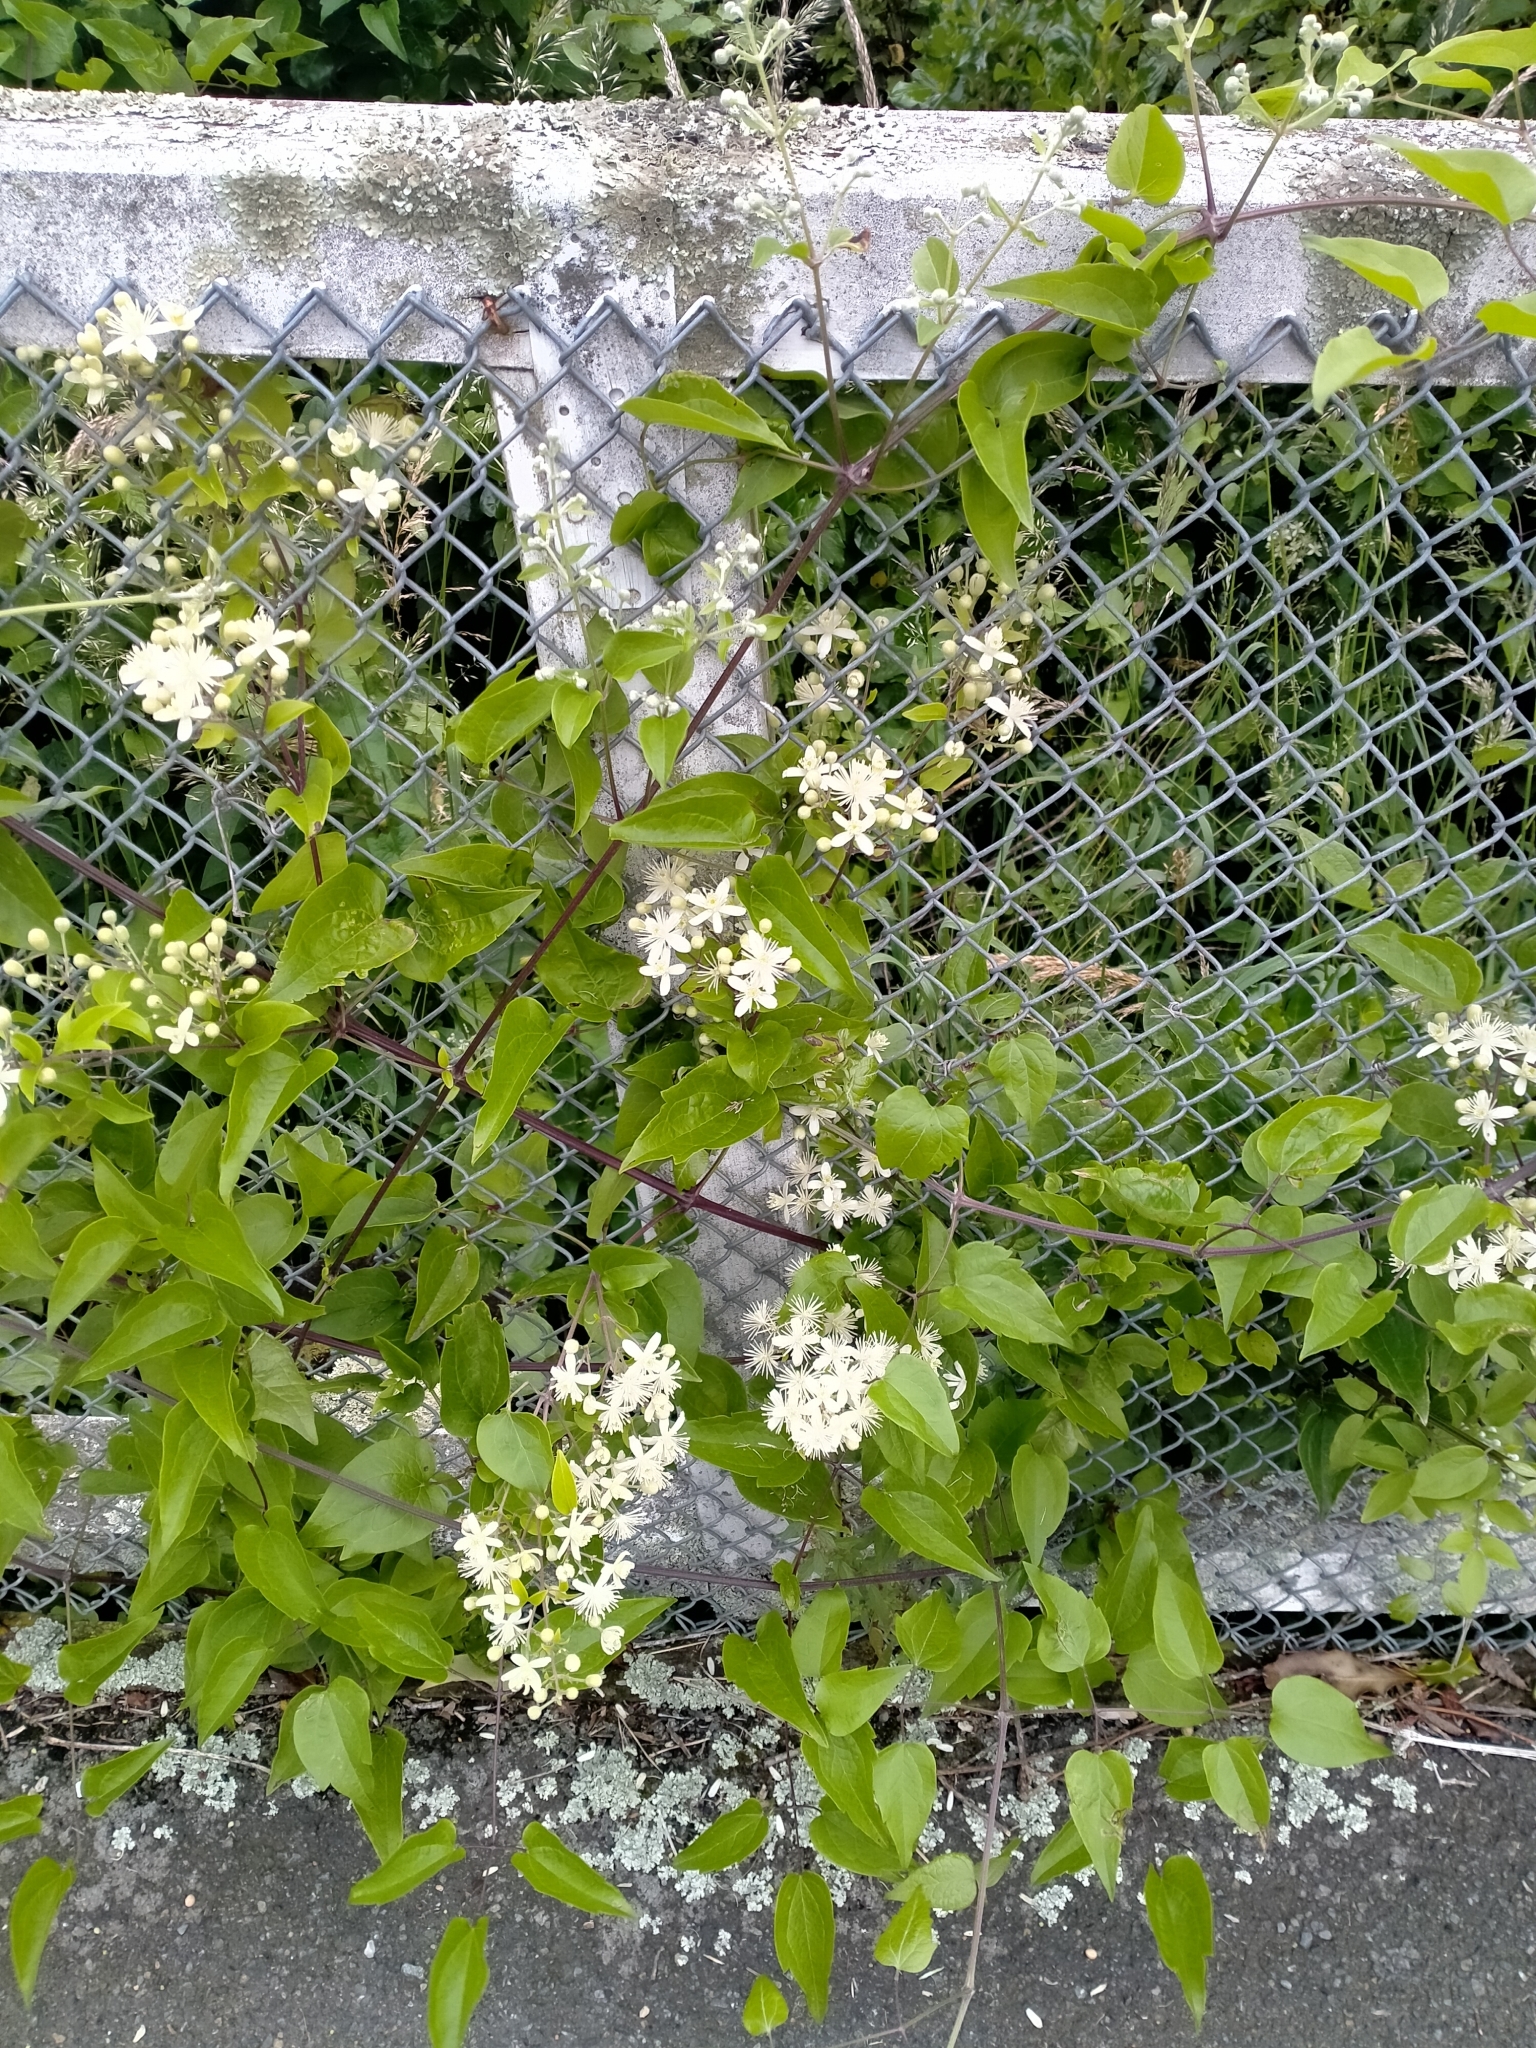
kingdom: Plantae
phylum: Tracheophyta
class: Magnoliopsida
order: Ranunculales
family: Ranunculaceae
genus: Clematis
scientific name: Clematis vitalba
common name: Evergreen clematis
